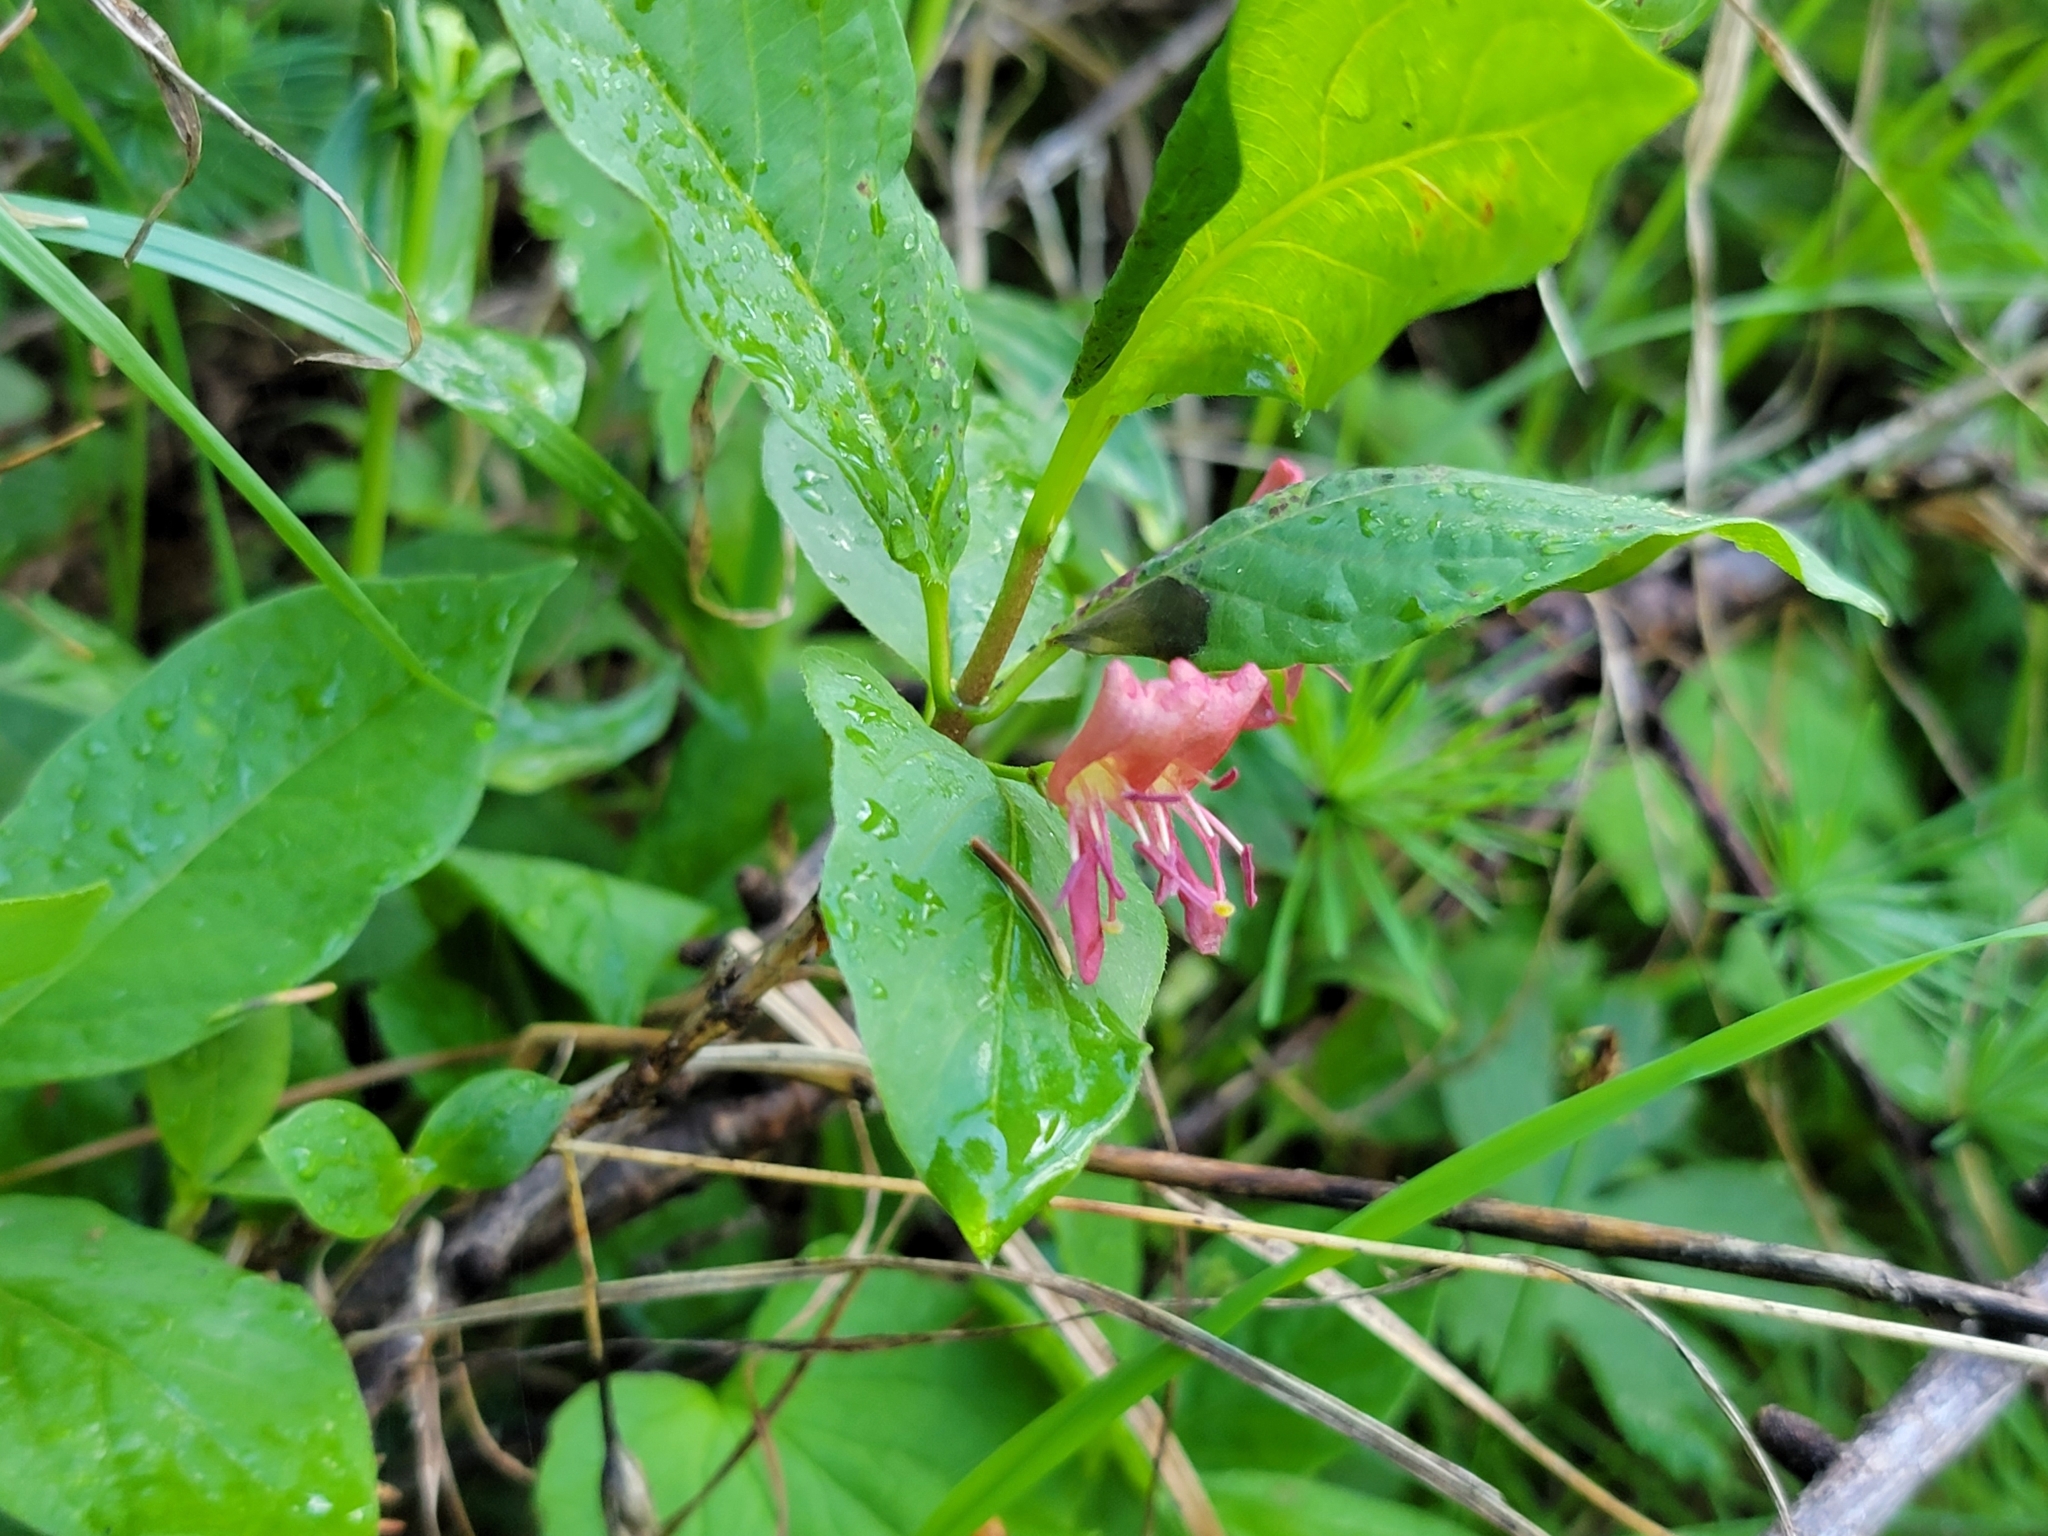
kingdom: Plantae
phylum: Tracheophyta
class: Magnoliopsida
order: Dipsacales
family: Caprifoliaceae
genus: Lonicera
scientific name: Lonicera alpigena
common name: Alpine honeysuckle
